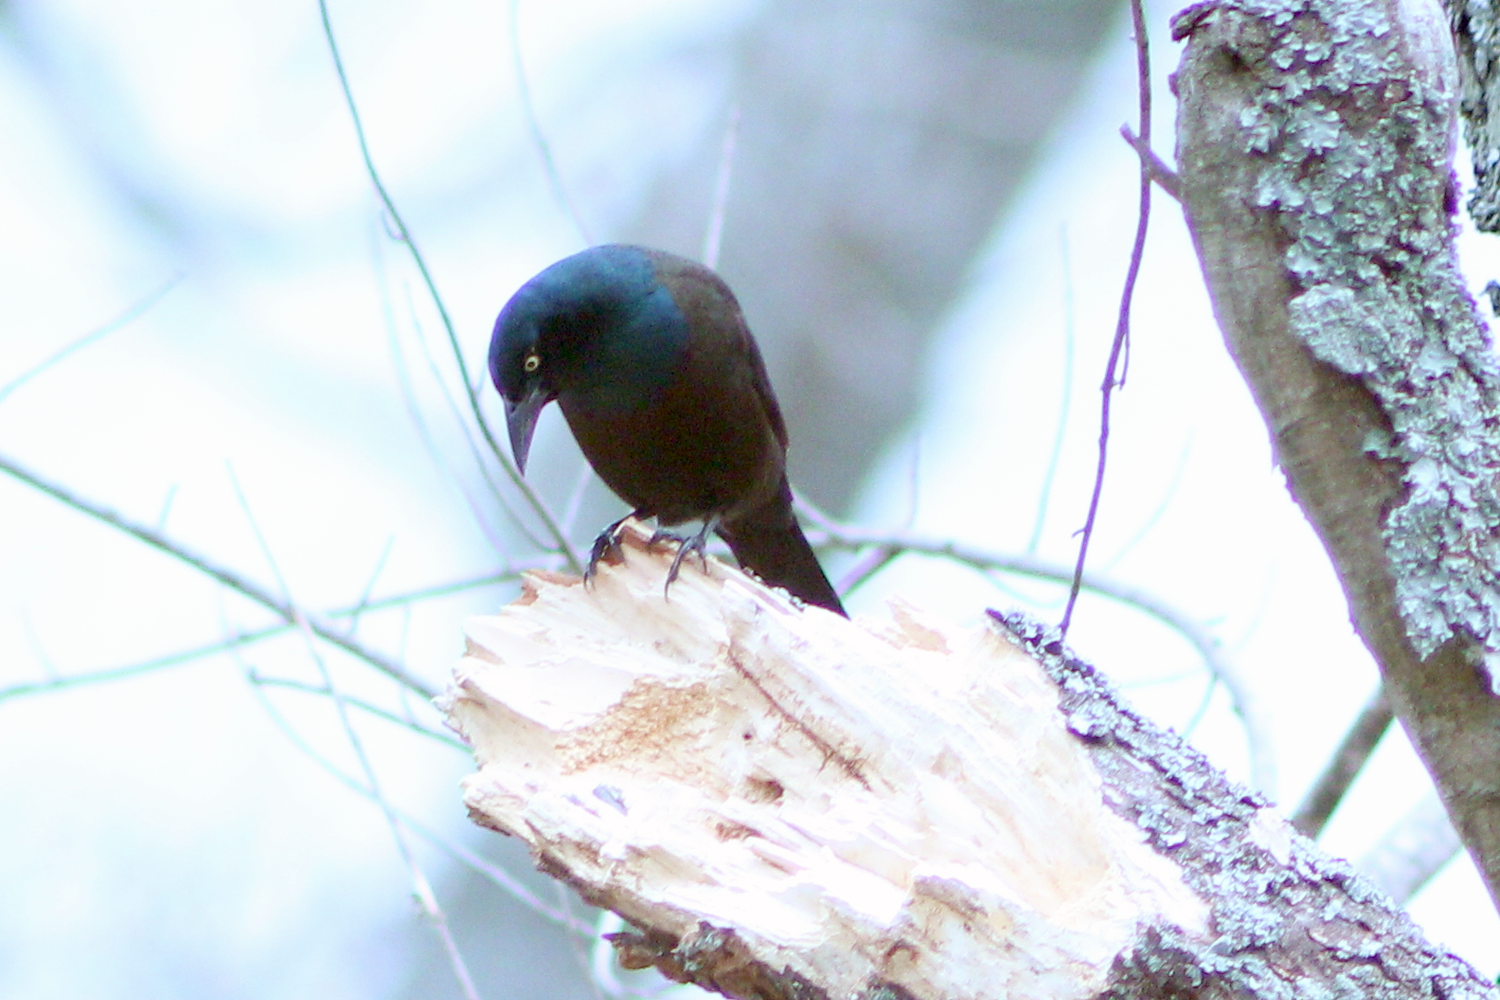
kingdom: Animalia
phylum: Chordata
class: Aves
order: Passeriformes
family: Icteridae
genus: Quiscalus
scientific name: Quiscalus quiscula
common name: Common grackle
